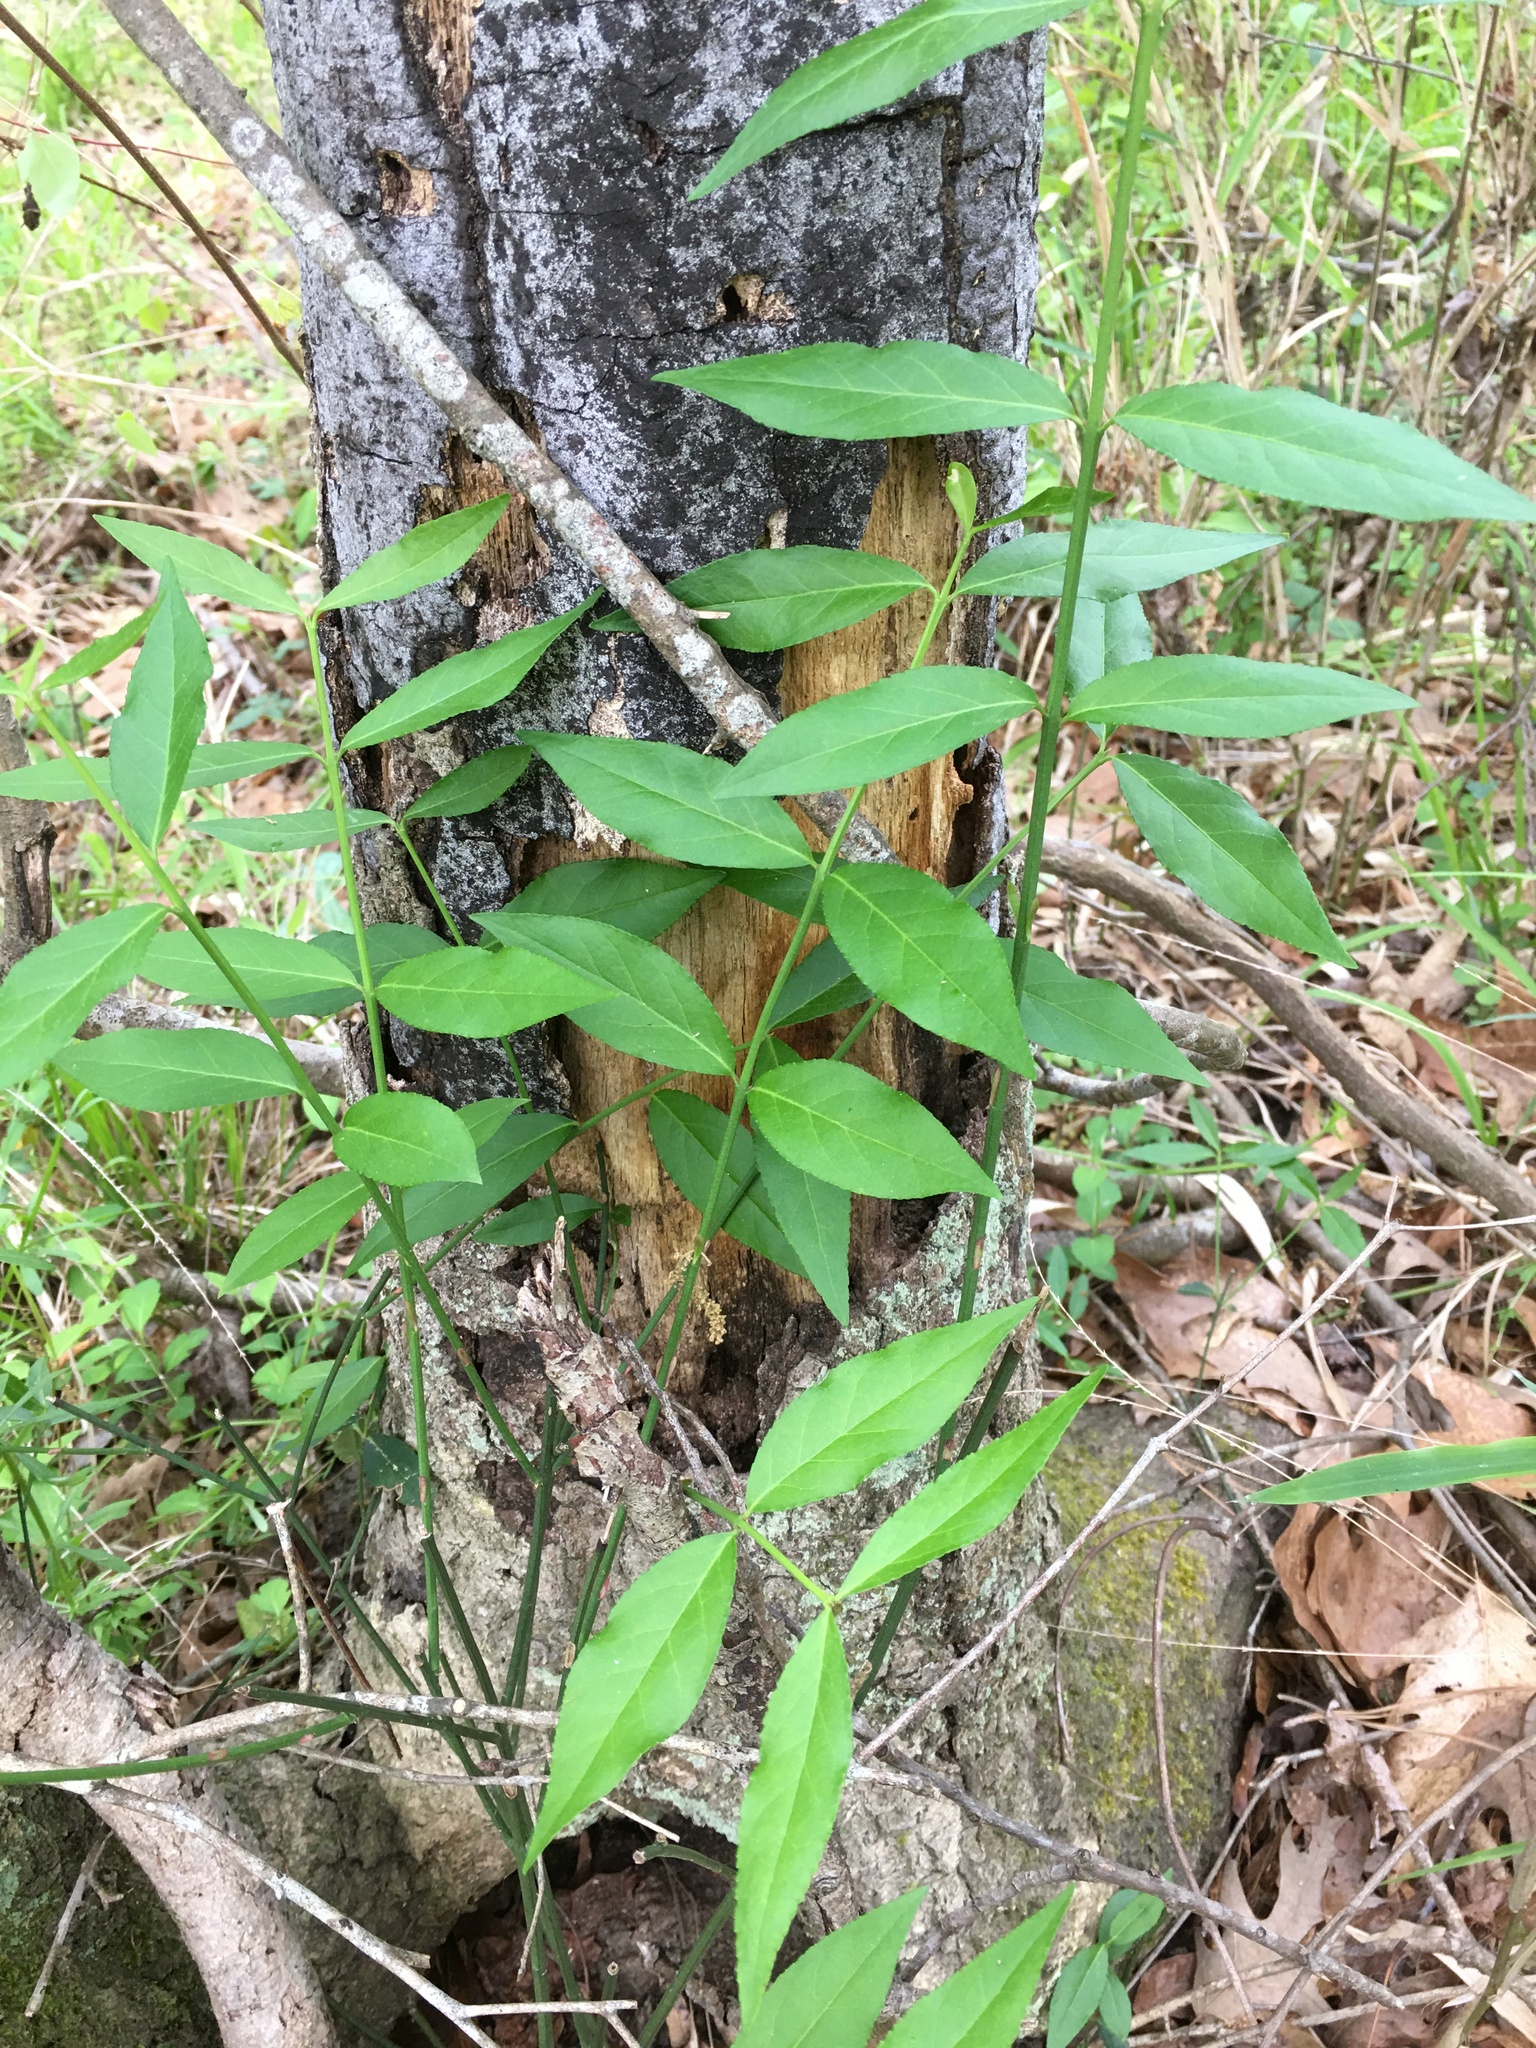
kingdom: Plantae
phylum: Tracheophyta
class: Magnoliopsida
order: Celastrales
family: Celastraceae
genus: Euonymus
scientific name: Euonymus americanus
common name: Bursting-heart
